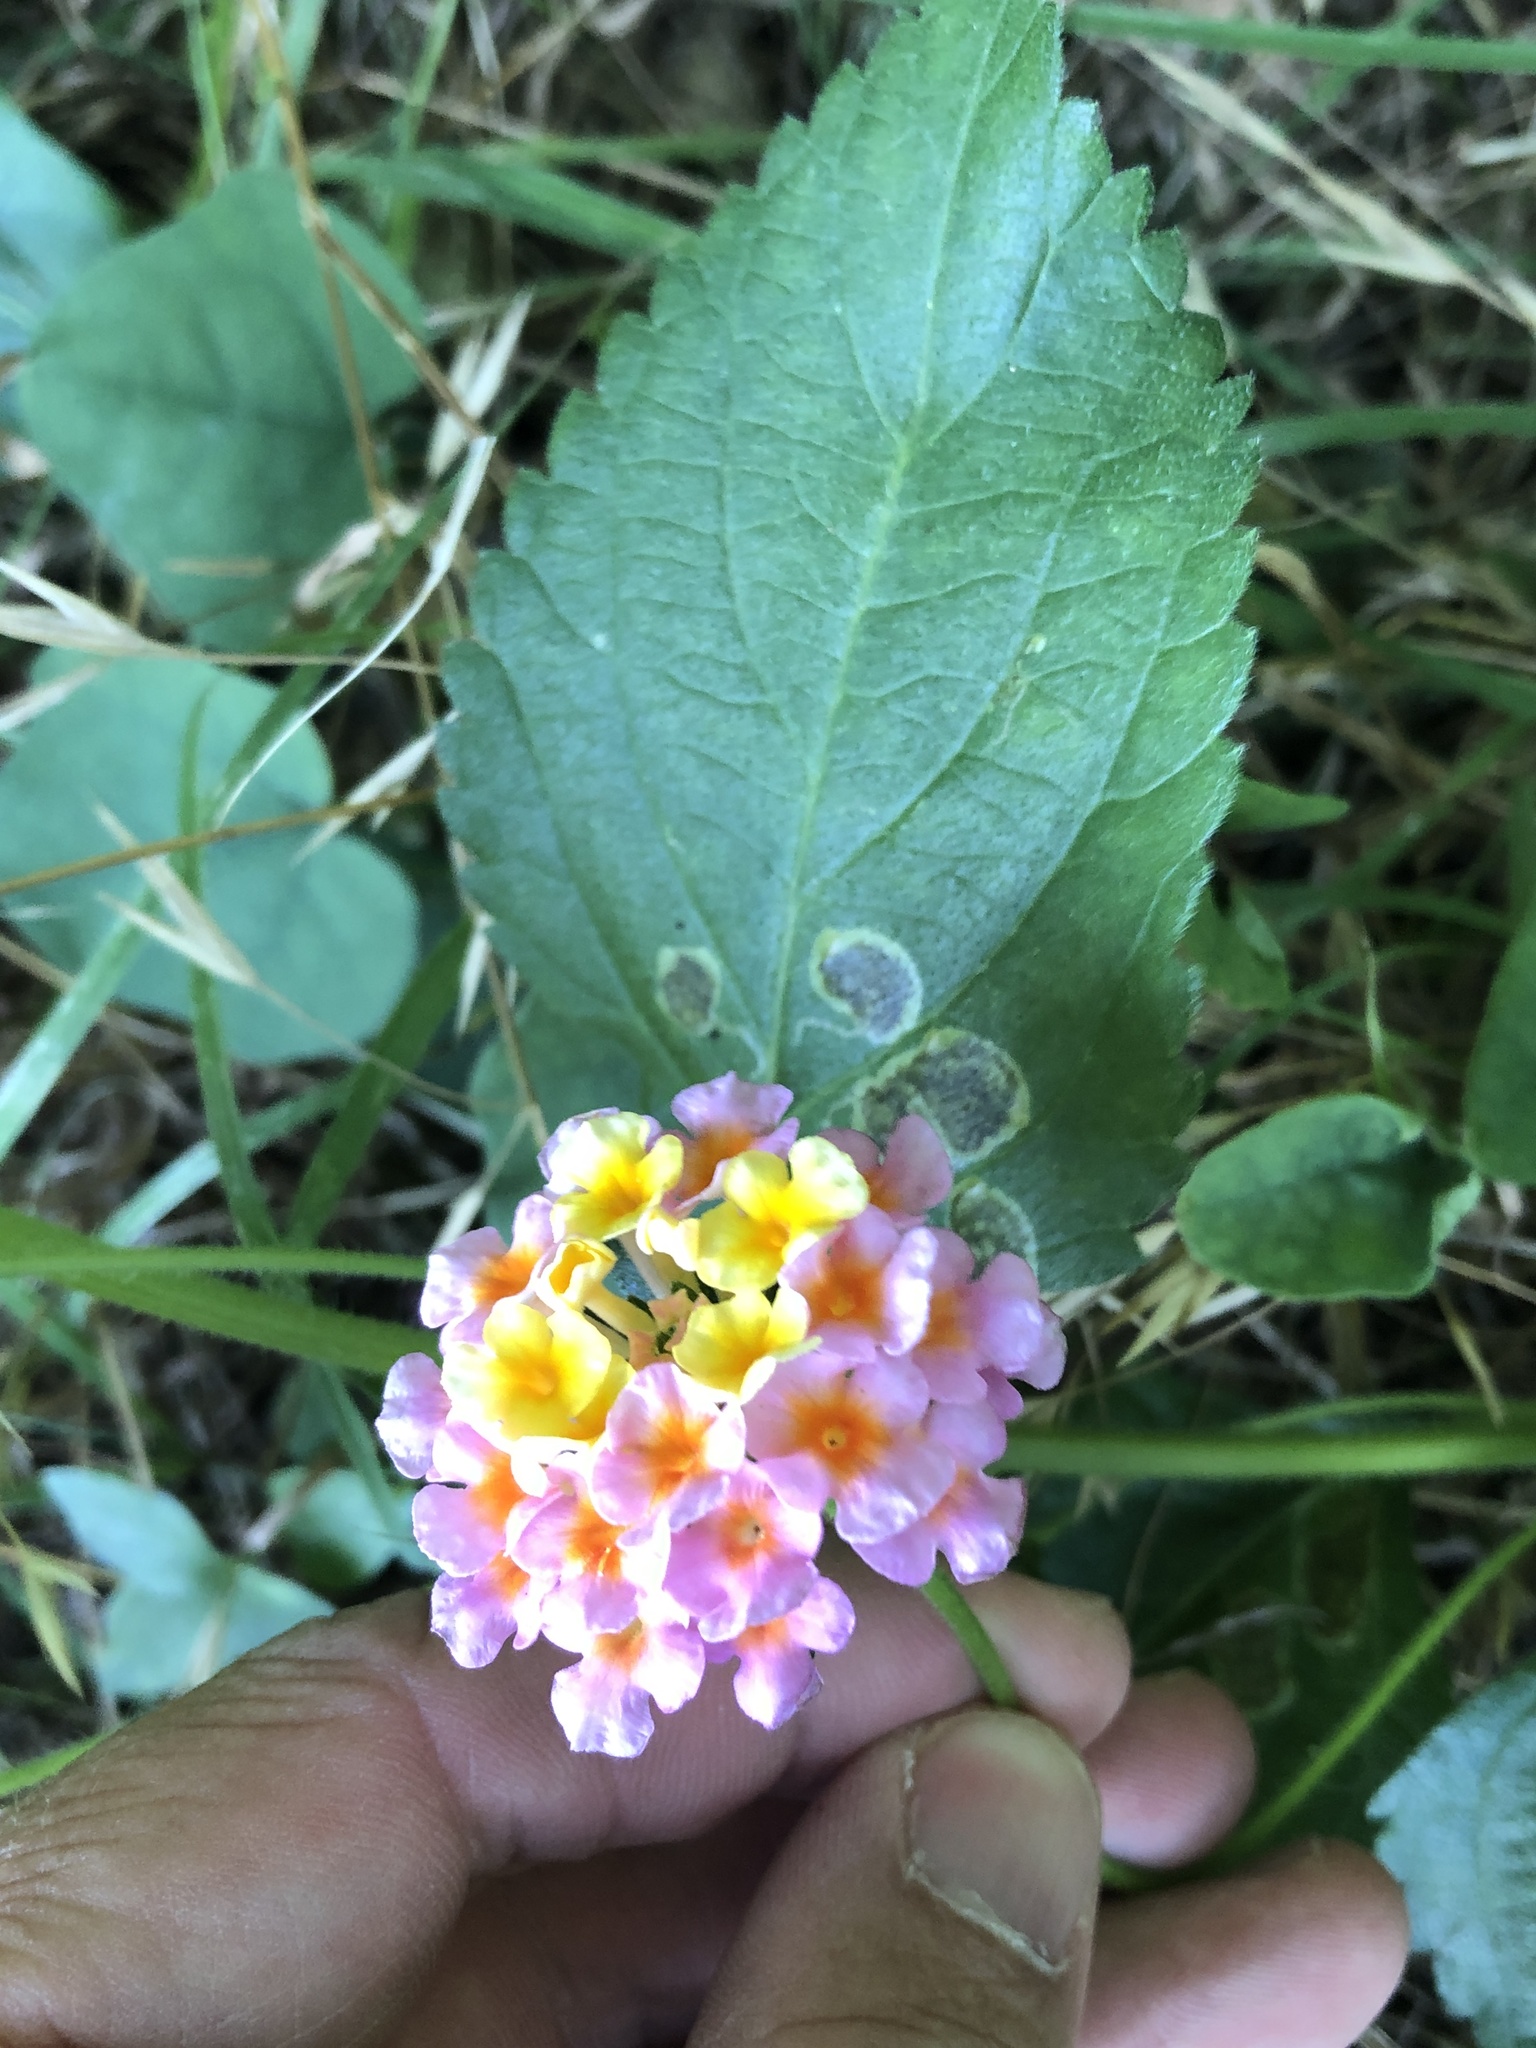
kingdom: Plantae
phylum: Tracheophyta
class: Magnoliopsida
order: Lamiales
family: Verbenaceae
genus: Lantana
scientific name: Lantana strigocamara
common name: Lantana
